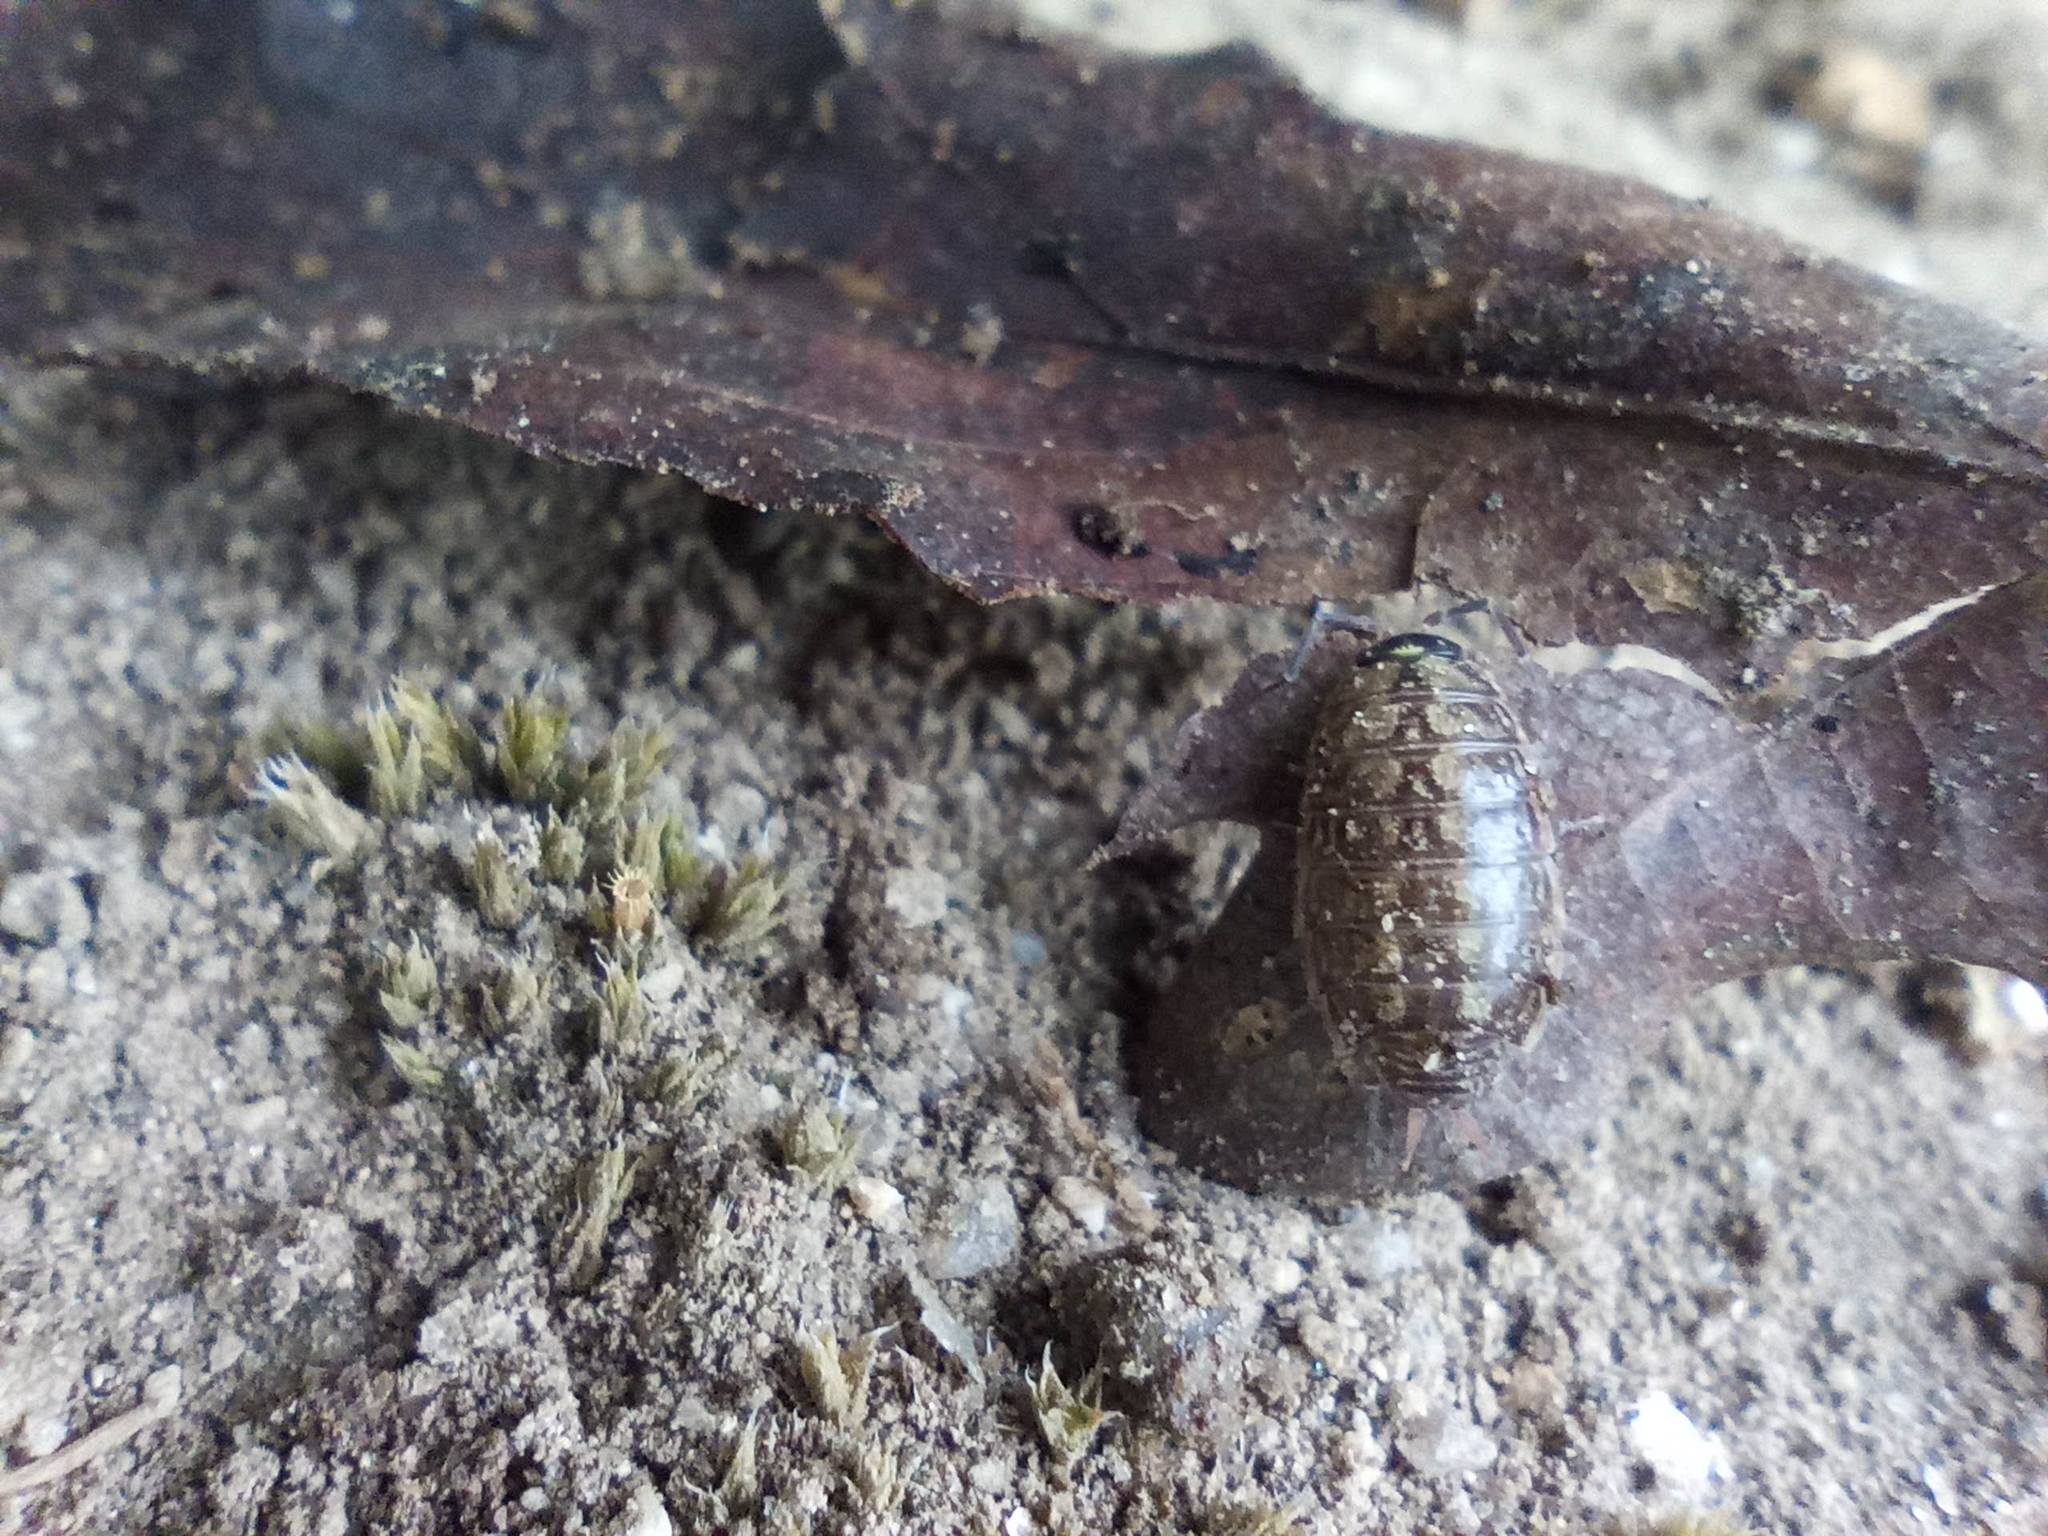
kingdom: Animalia
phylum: Arthropoda
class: Malacostraca
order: Isopoda
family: Philosciidae
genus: Philoscia
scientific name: Philoscia muscorum
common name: Common striped woodlouse
